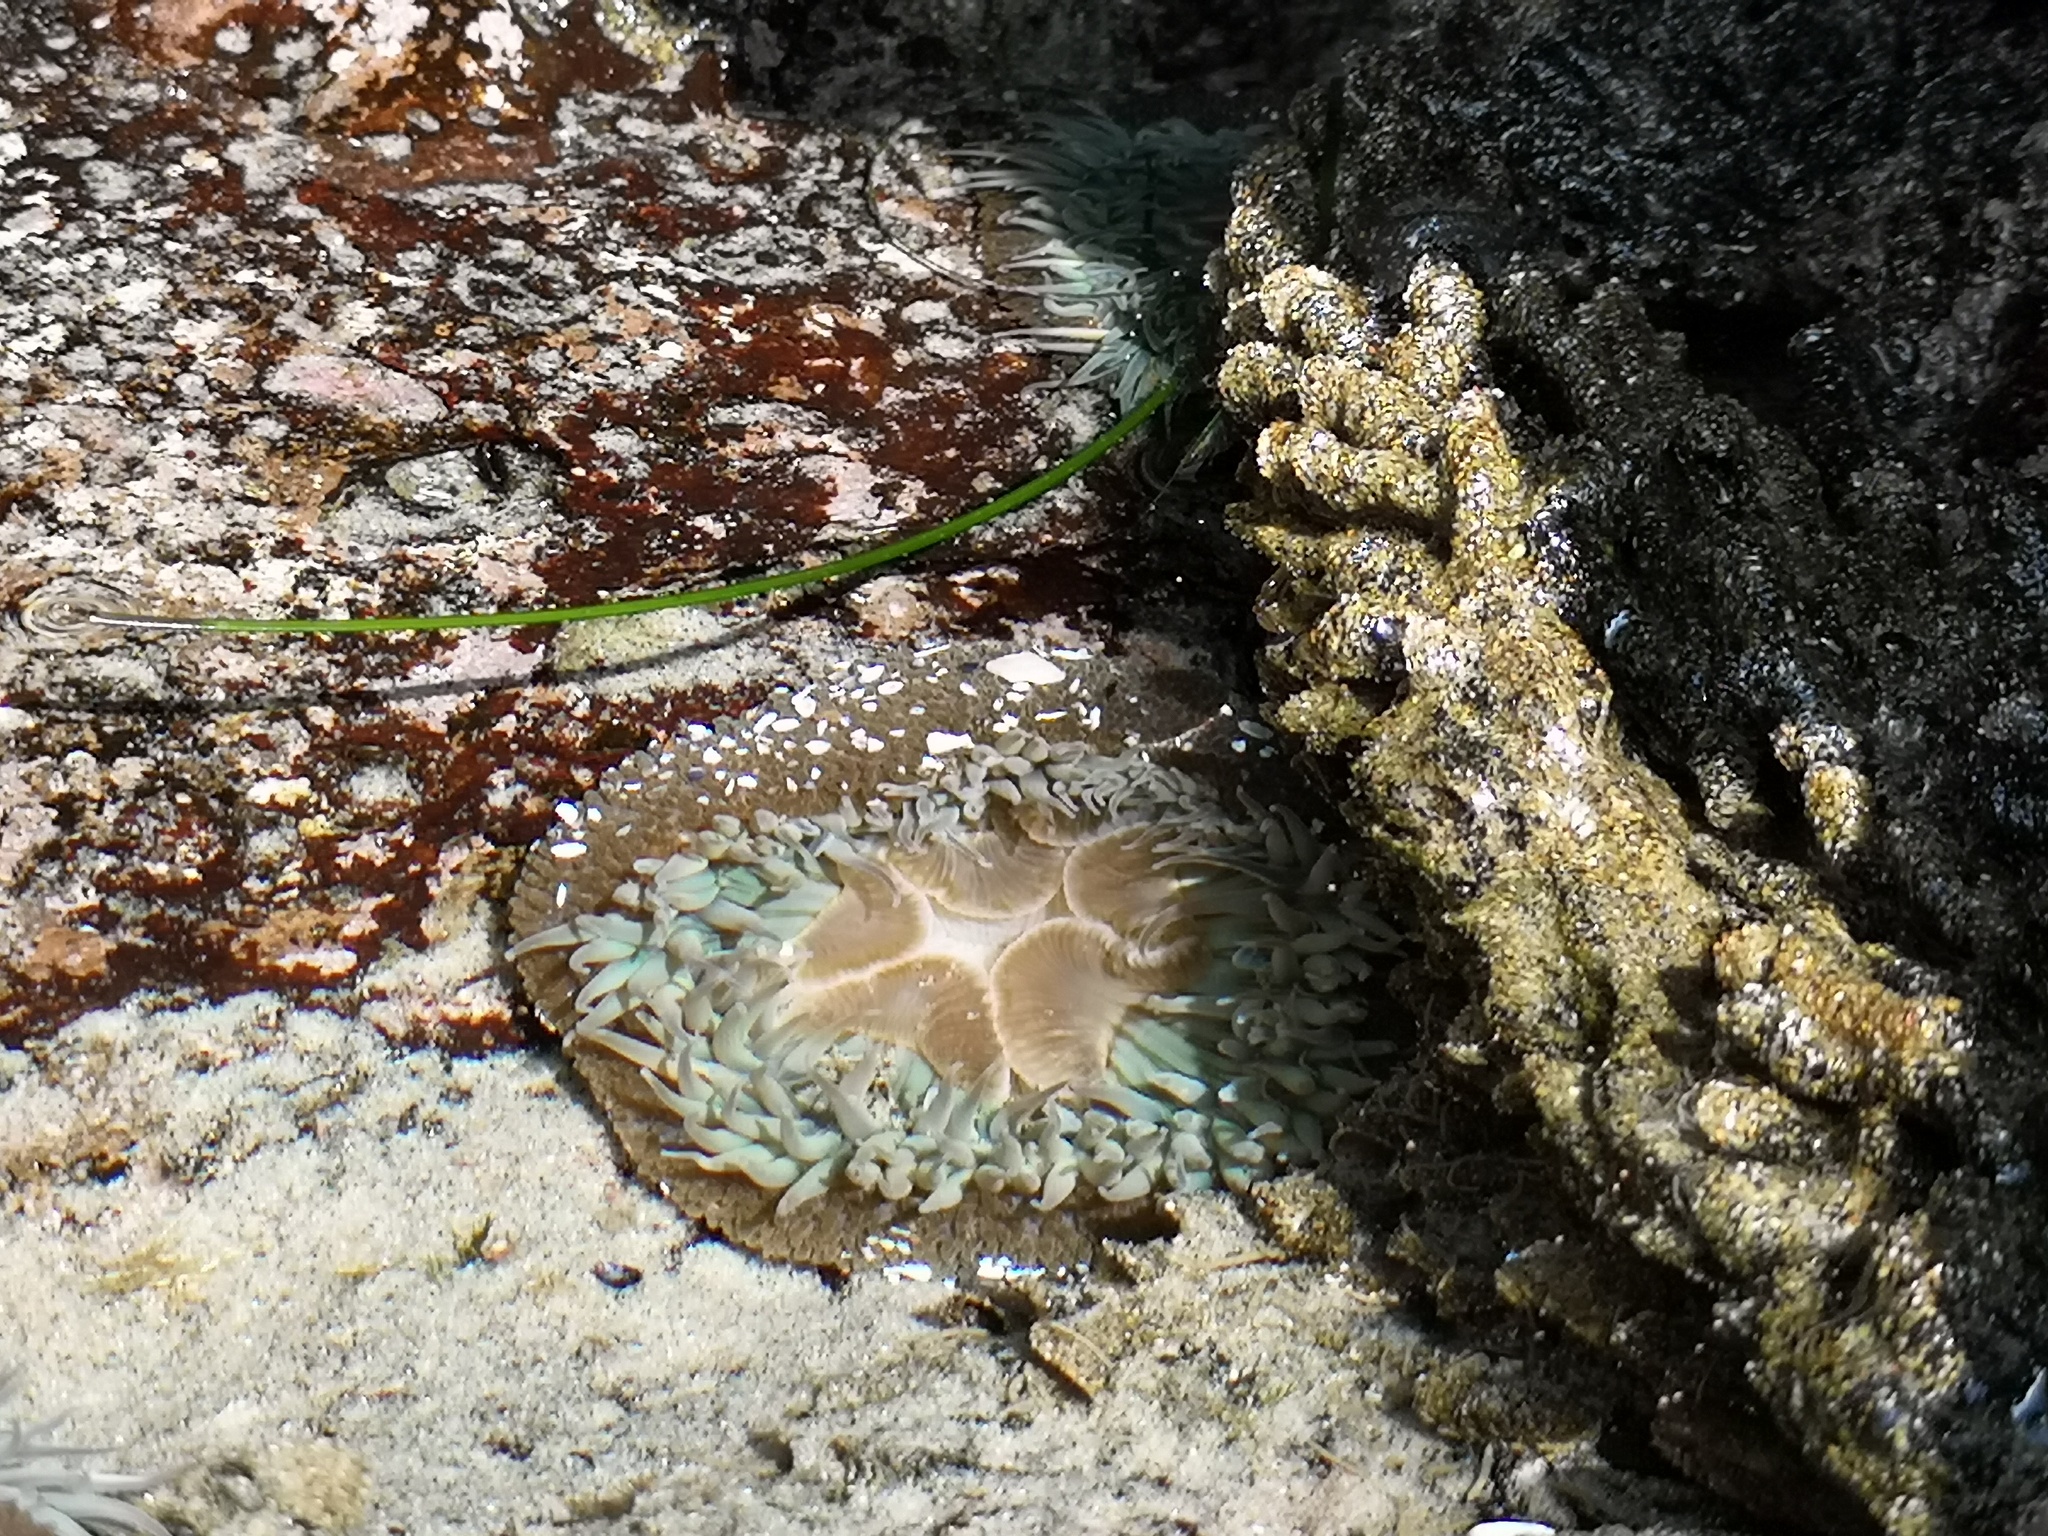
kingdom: Animalia
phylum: Cnidaria
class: Anthozoa
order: Actiniaria
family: Actiniidae
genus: Anthopleura
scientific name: Anthopleura sola
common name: Sun anemone
